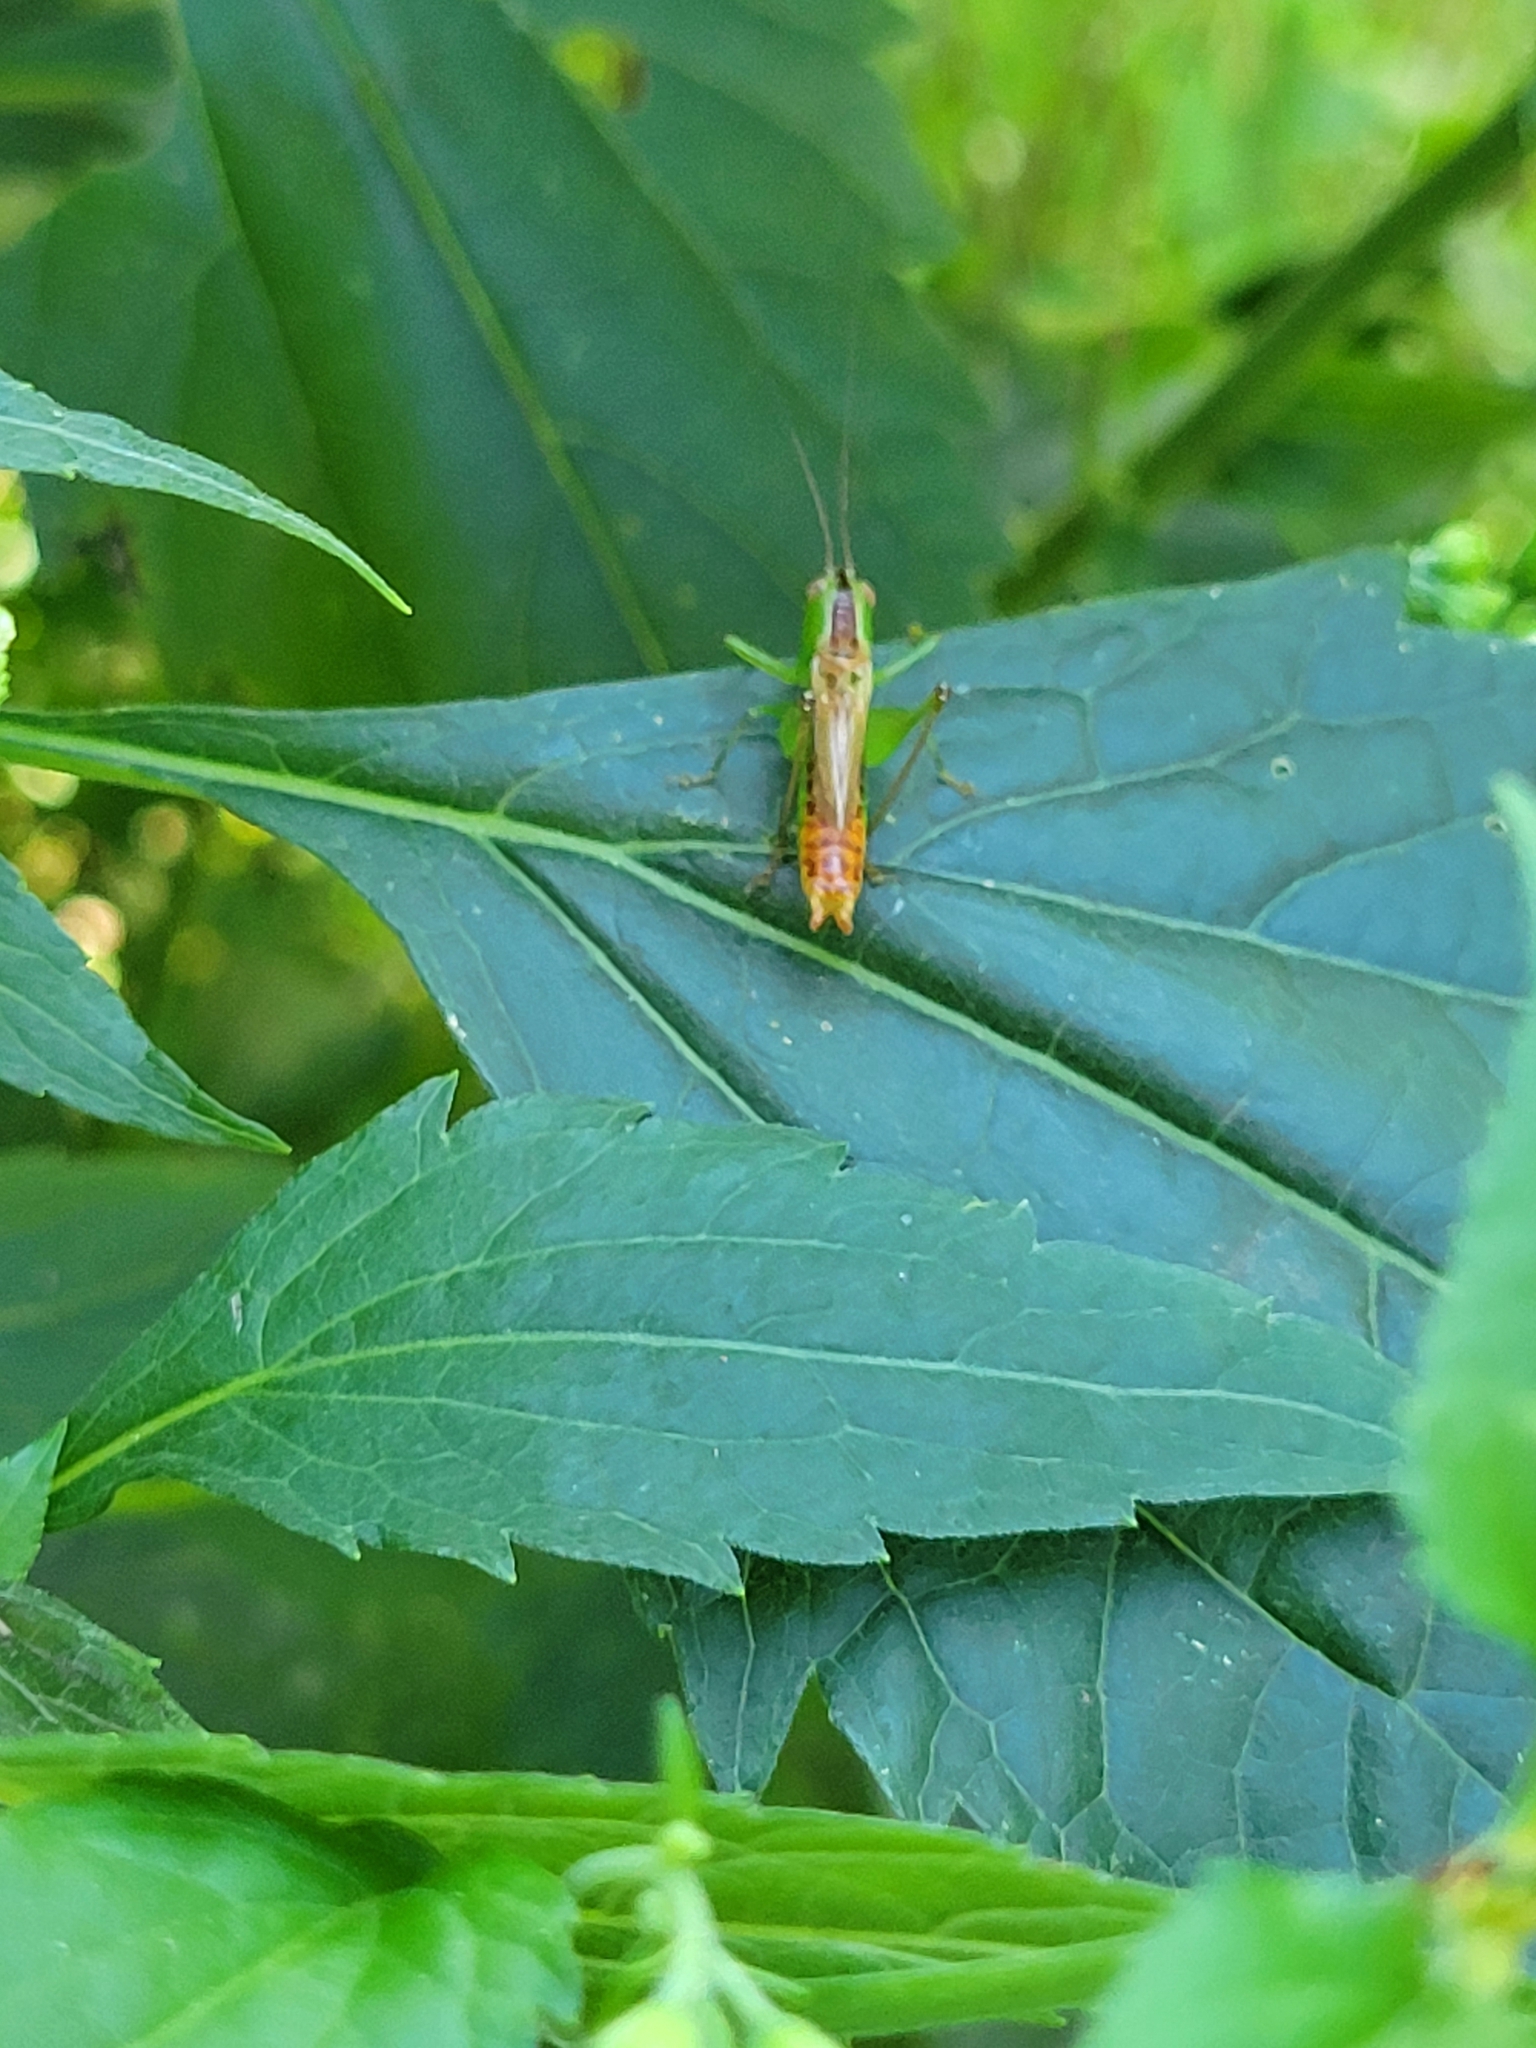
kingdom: Animalia
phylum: Arthropoda
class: Insecta
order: Orthoptera
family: Tettigoniidae
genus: Conocephalus
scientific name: Conocephalus brevipennis
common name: Short-winged meadow katydid
